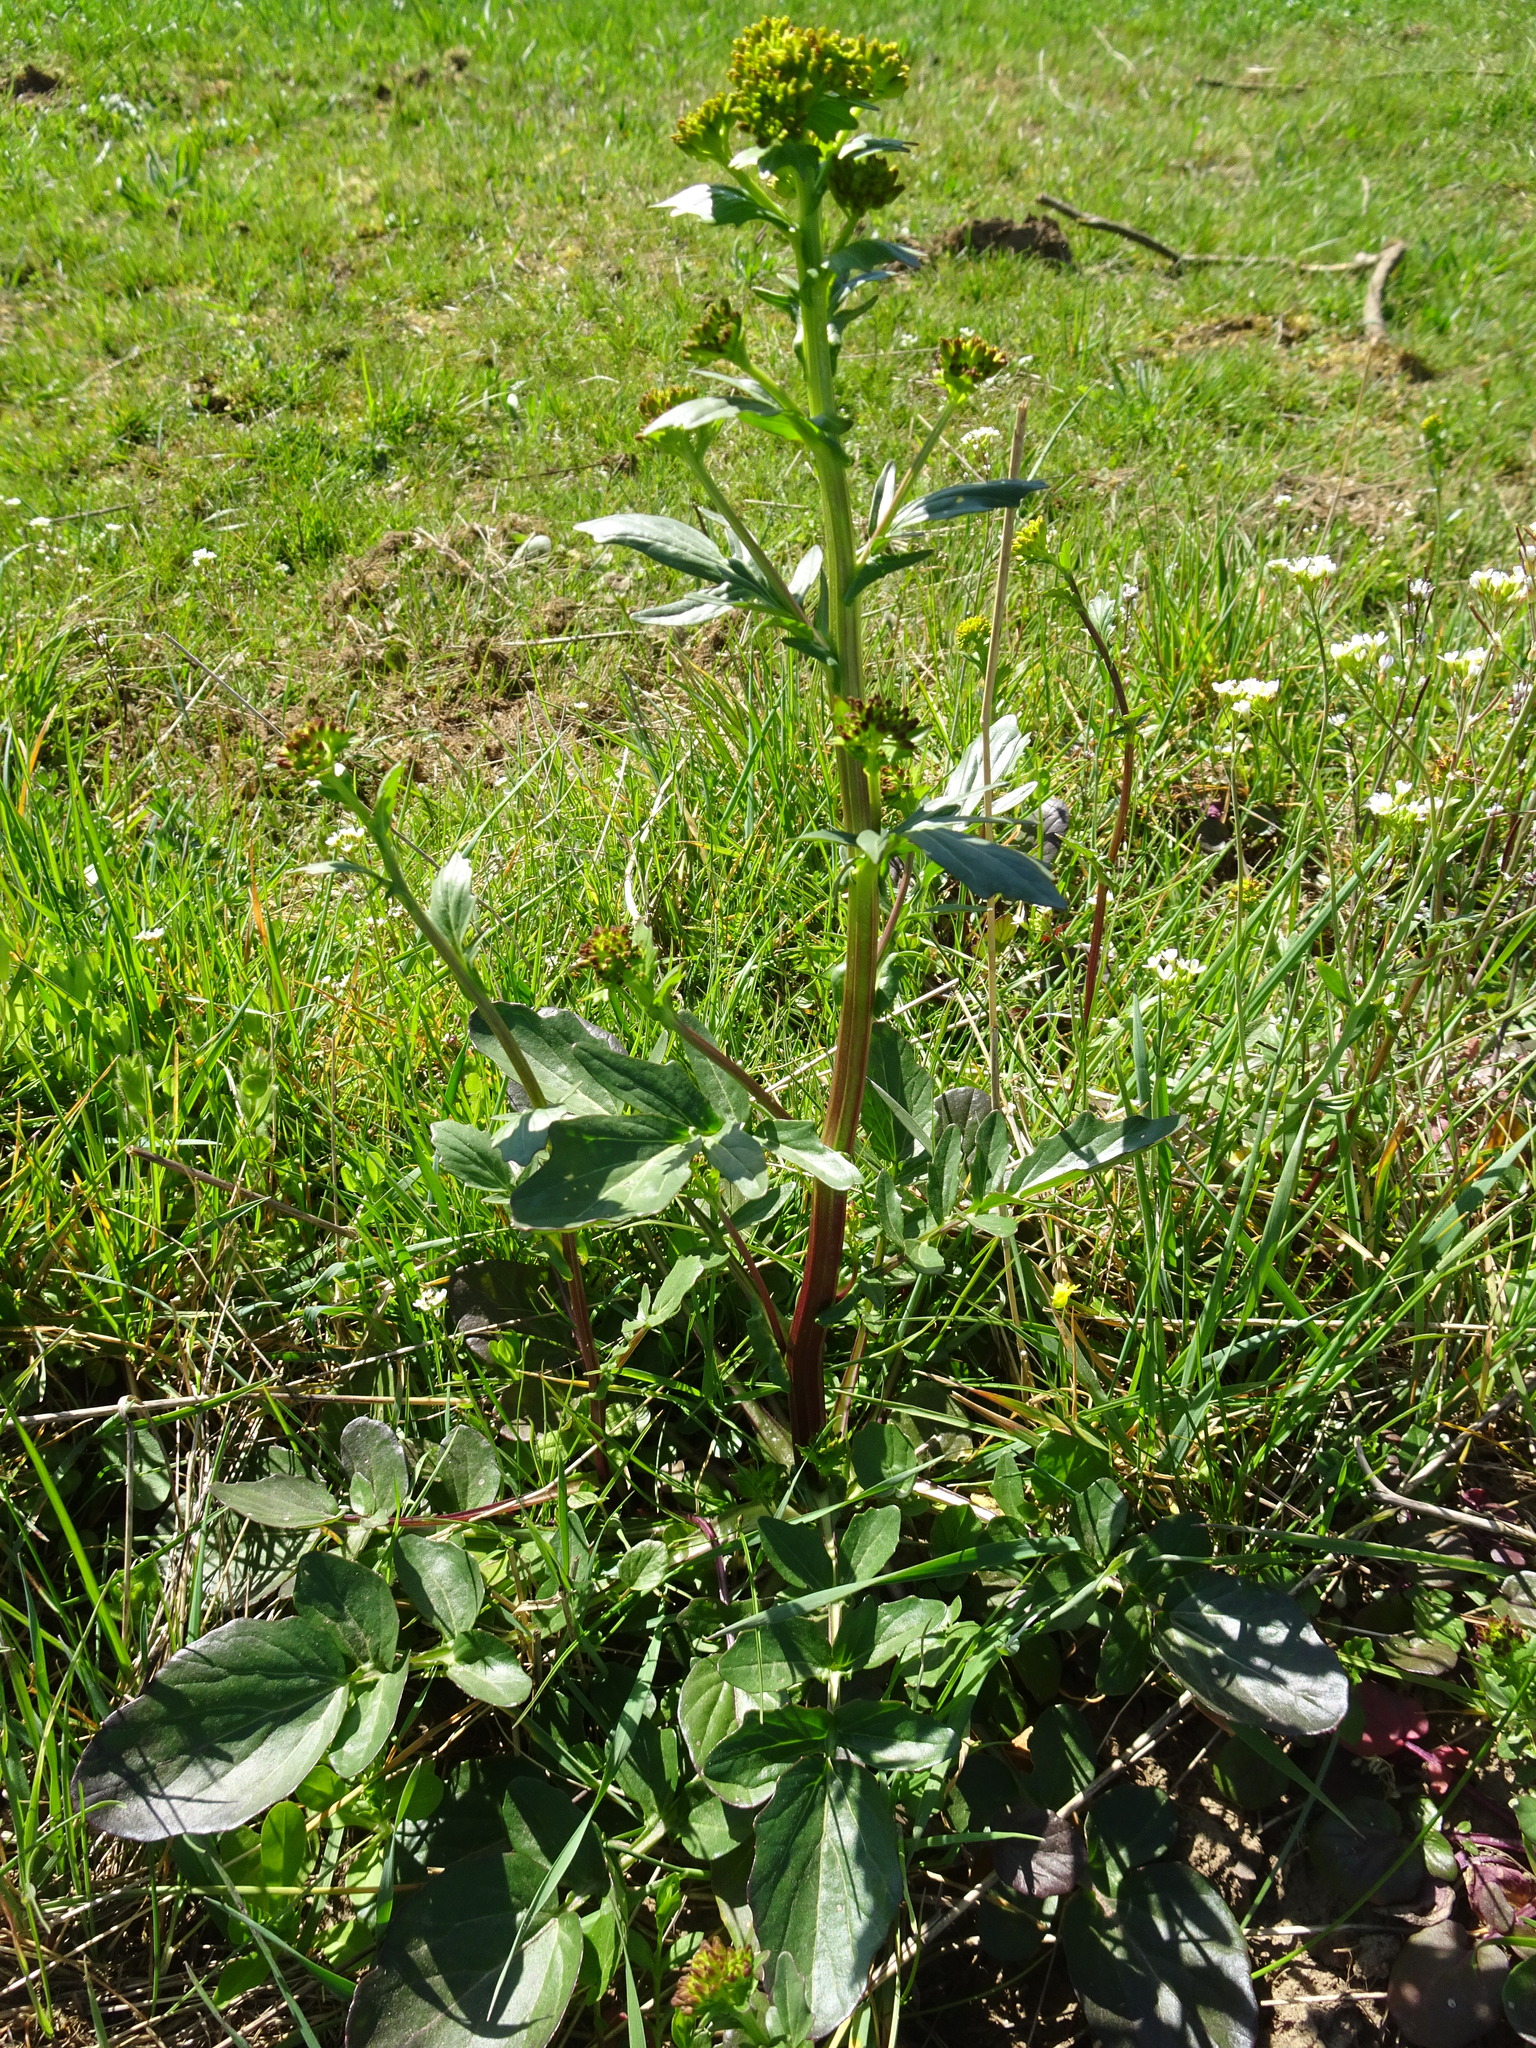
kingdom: Plantae
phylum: Tracheophyta
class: Magnoliopsida
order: Brassicales
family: Brassicaceae
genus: Barbarea
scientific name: Barbarea vulgaris
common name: Cressy-greens
